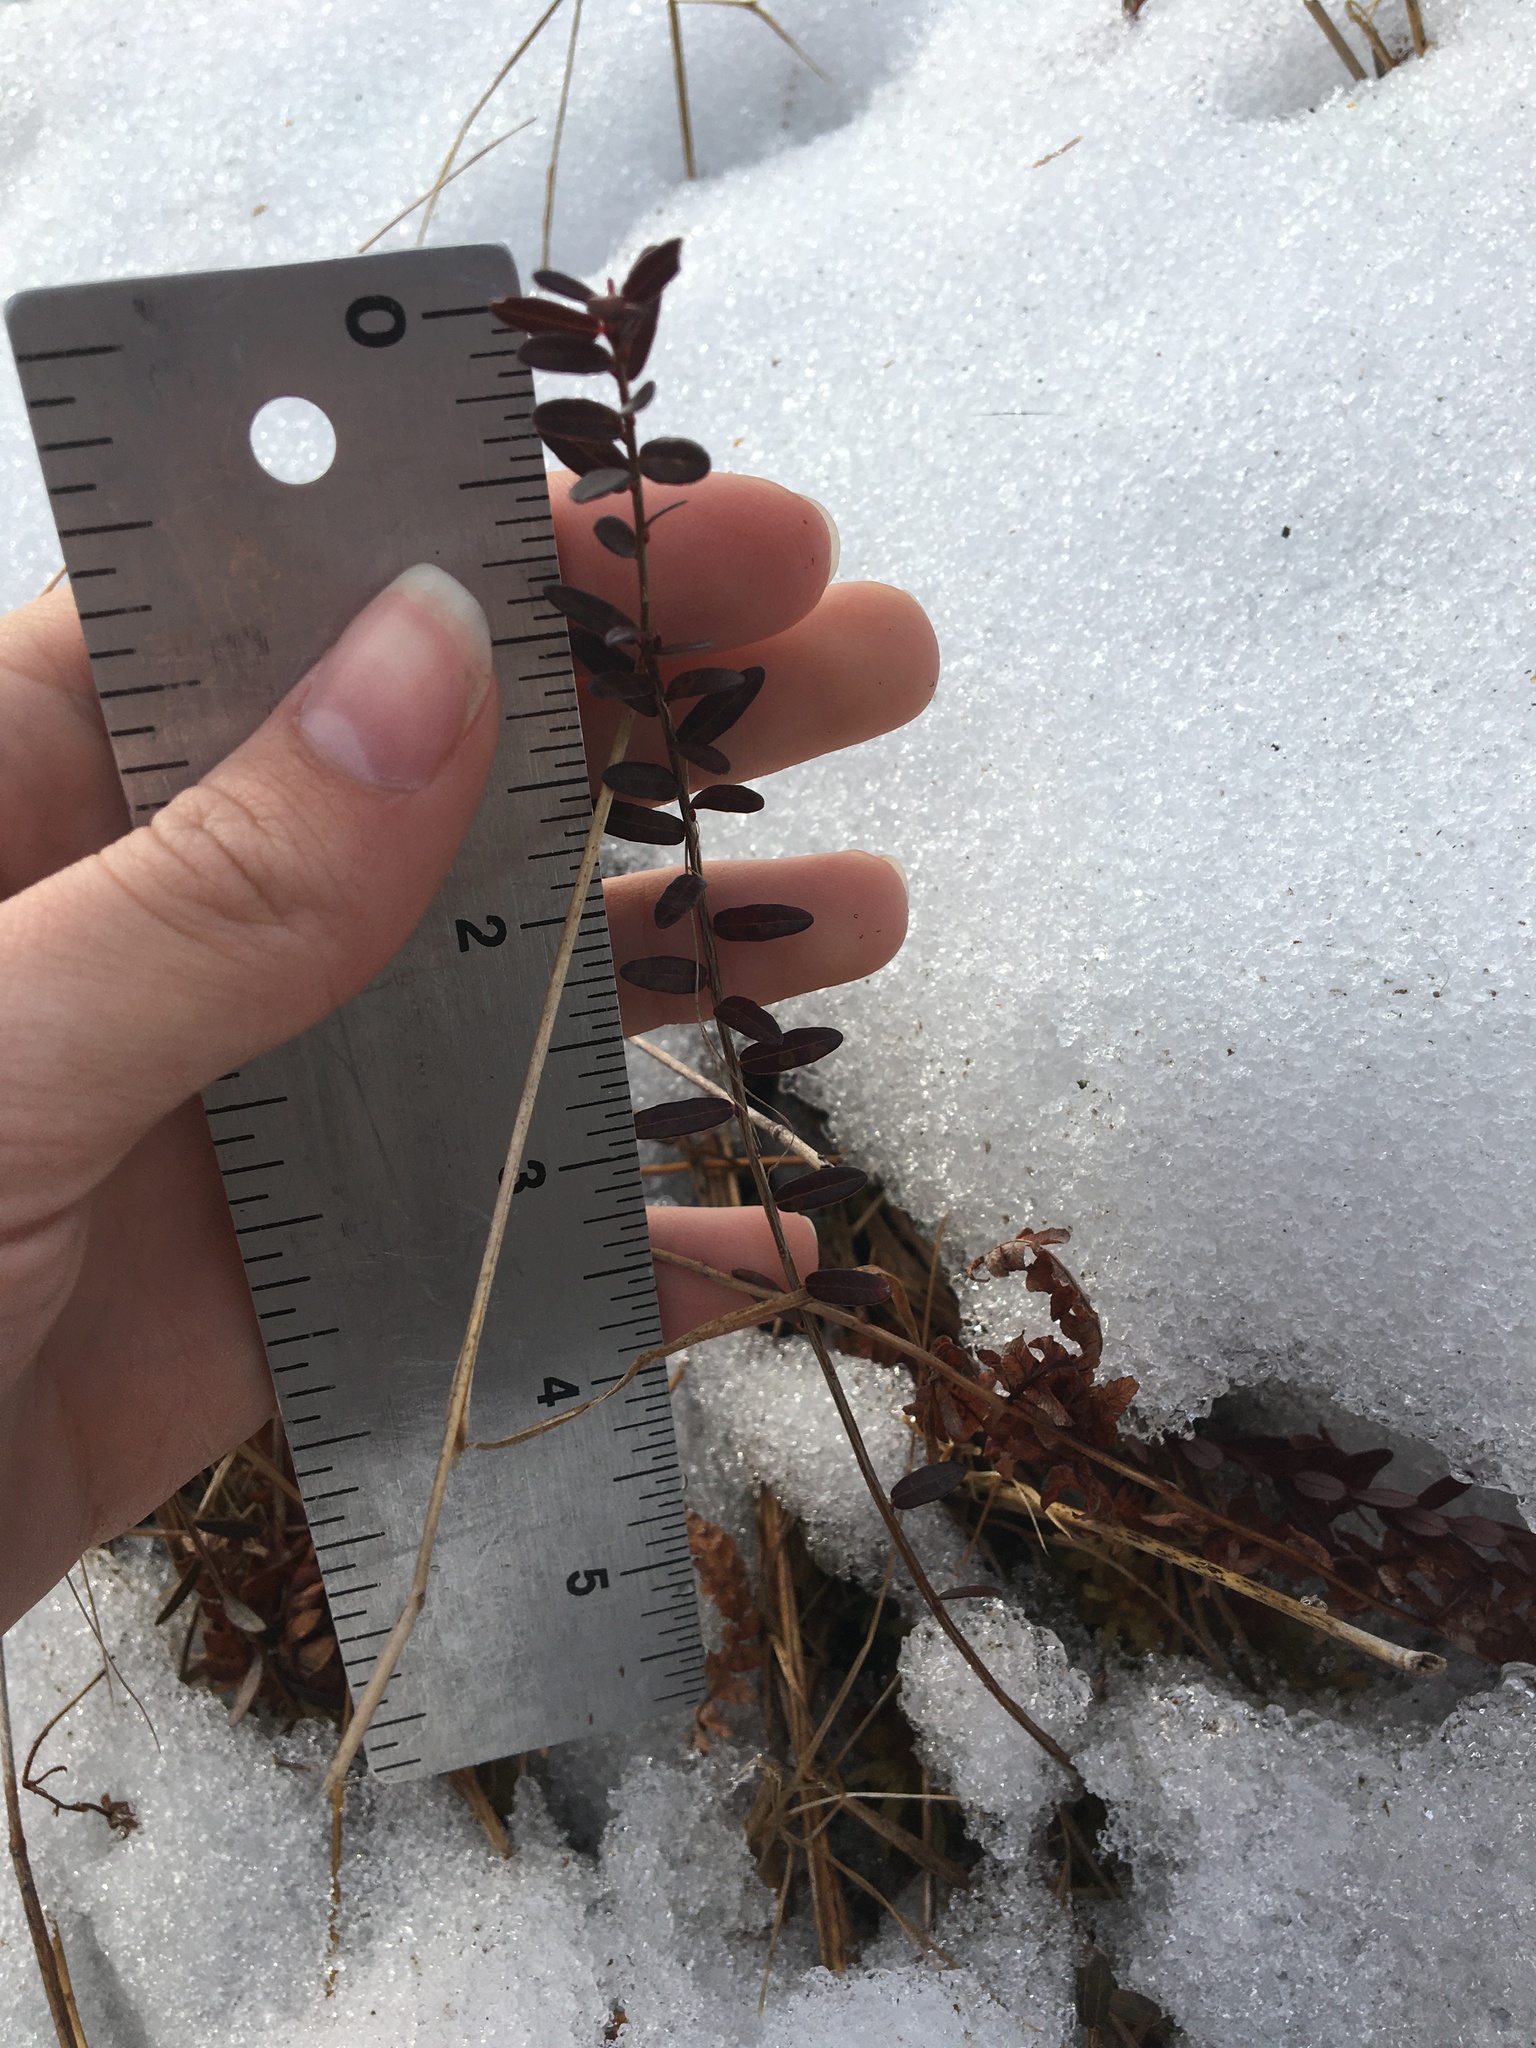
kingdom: Plantae
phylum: Tracheophyta
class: Magnoliopsida
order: Ericales
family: Ericaceae
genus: Vaccinium
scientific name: Vaccinium macrocarpon
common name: American cranberry
